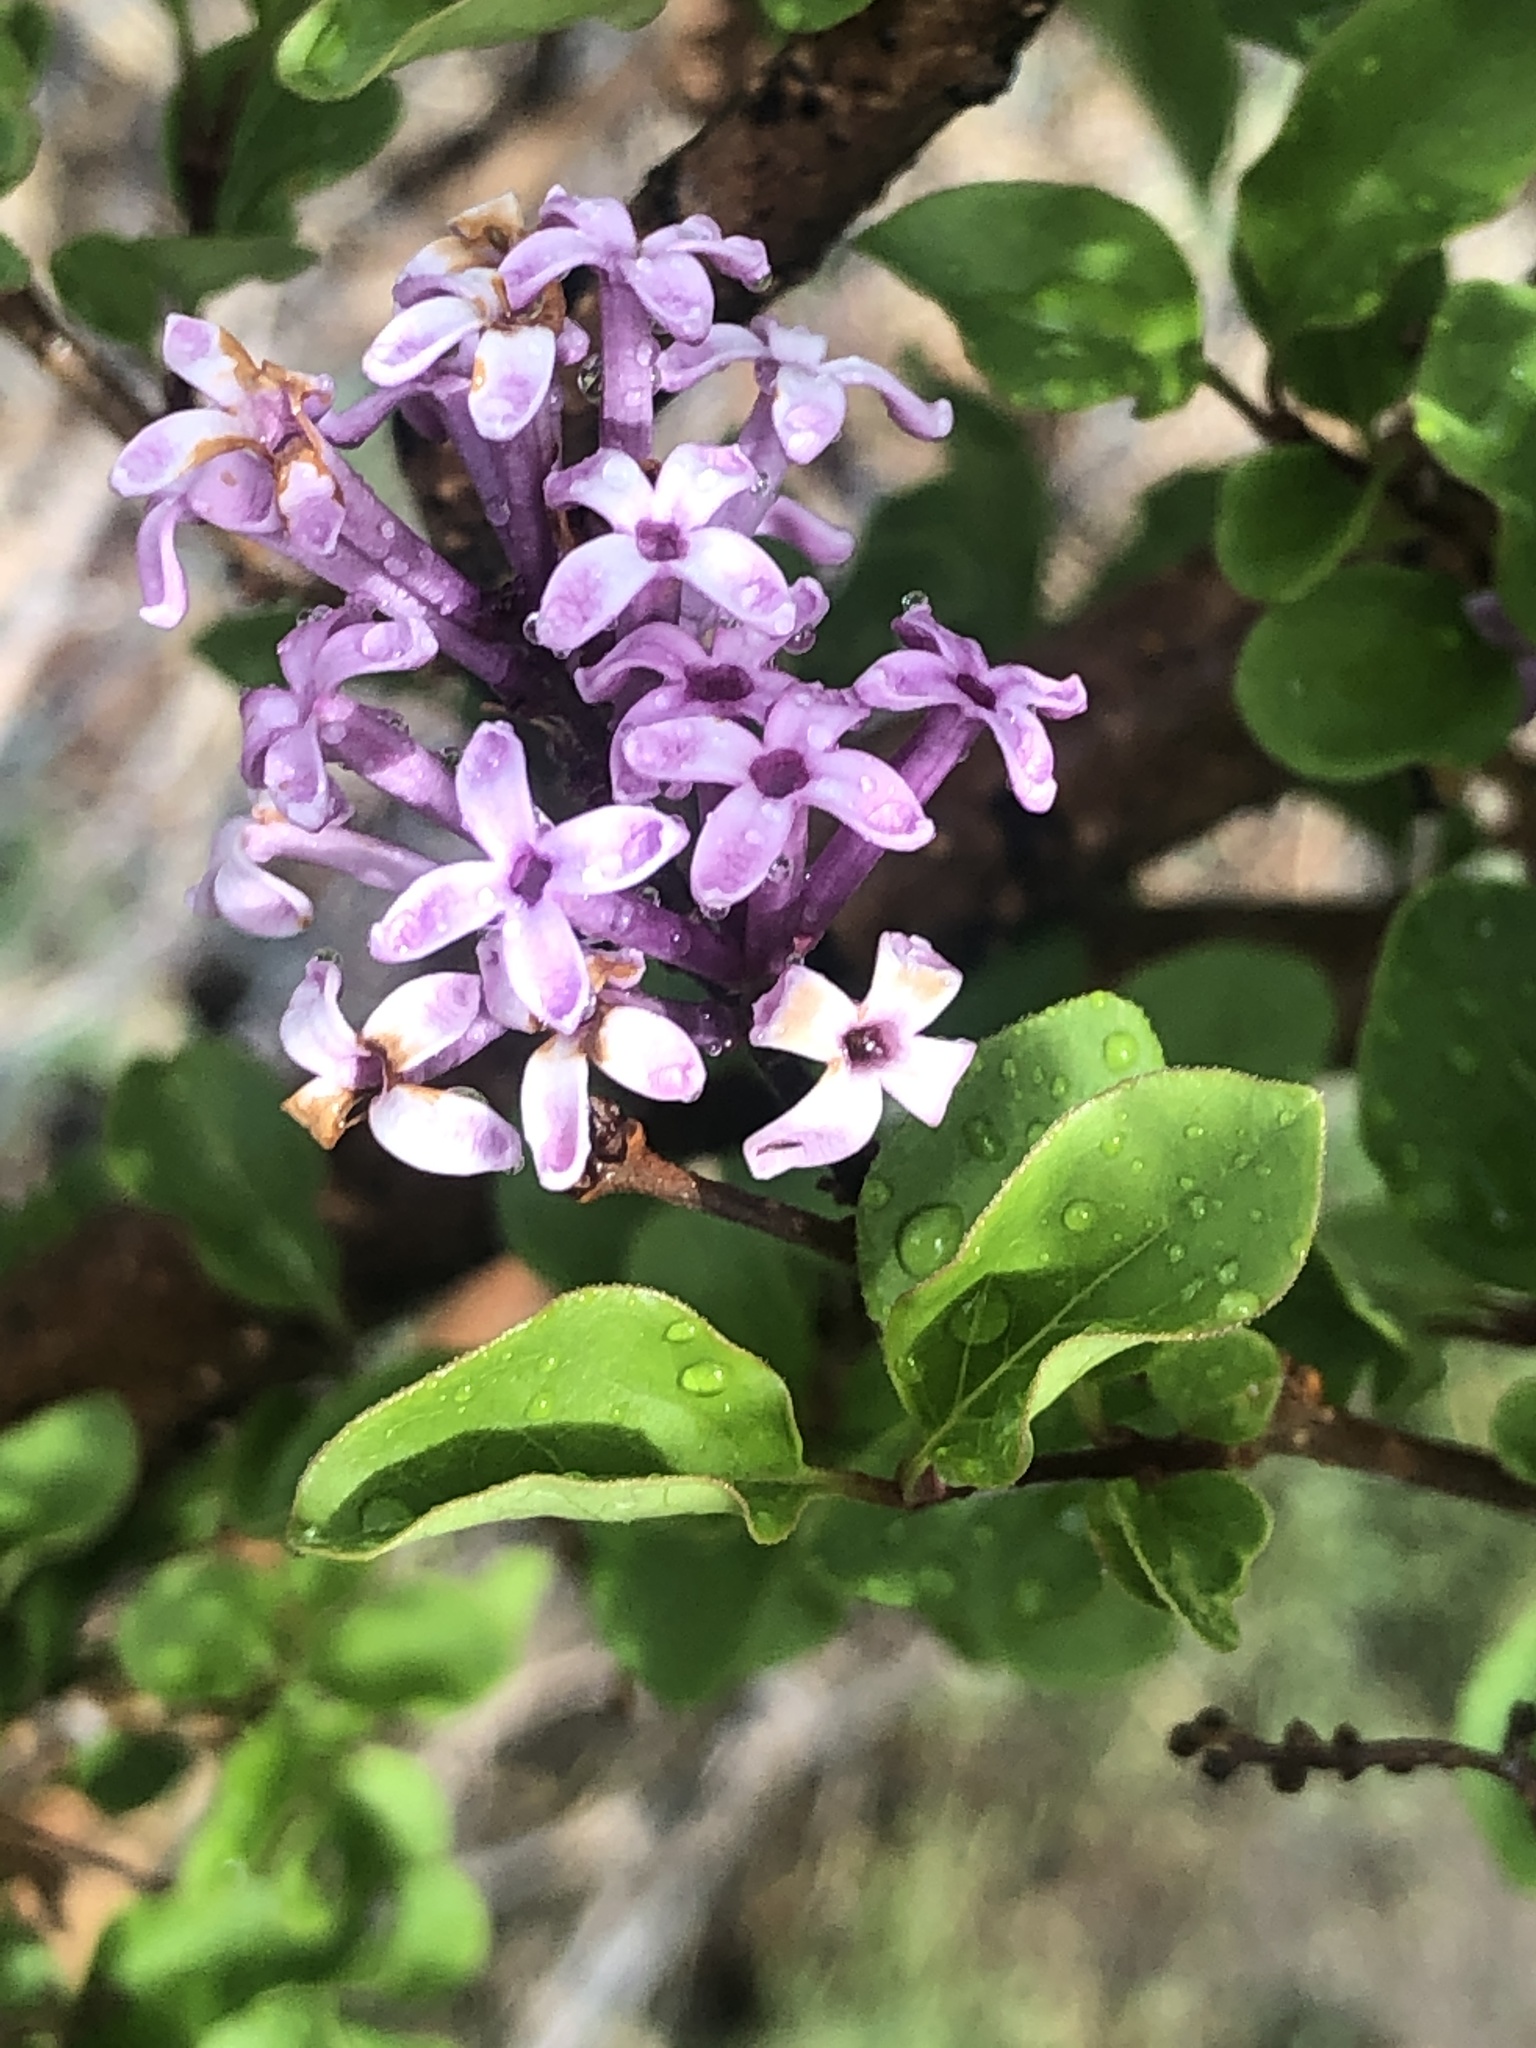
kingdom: Plantae
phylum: Tracheophyta
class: Magnoliopsida
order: Lamiales
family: Oleaceae
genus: Syringa
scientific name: Syringa vulgaris
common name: Common lilac
